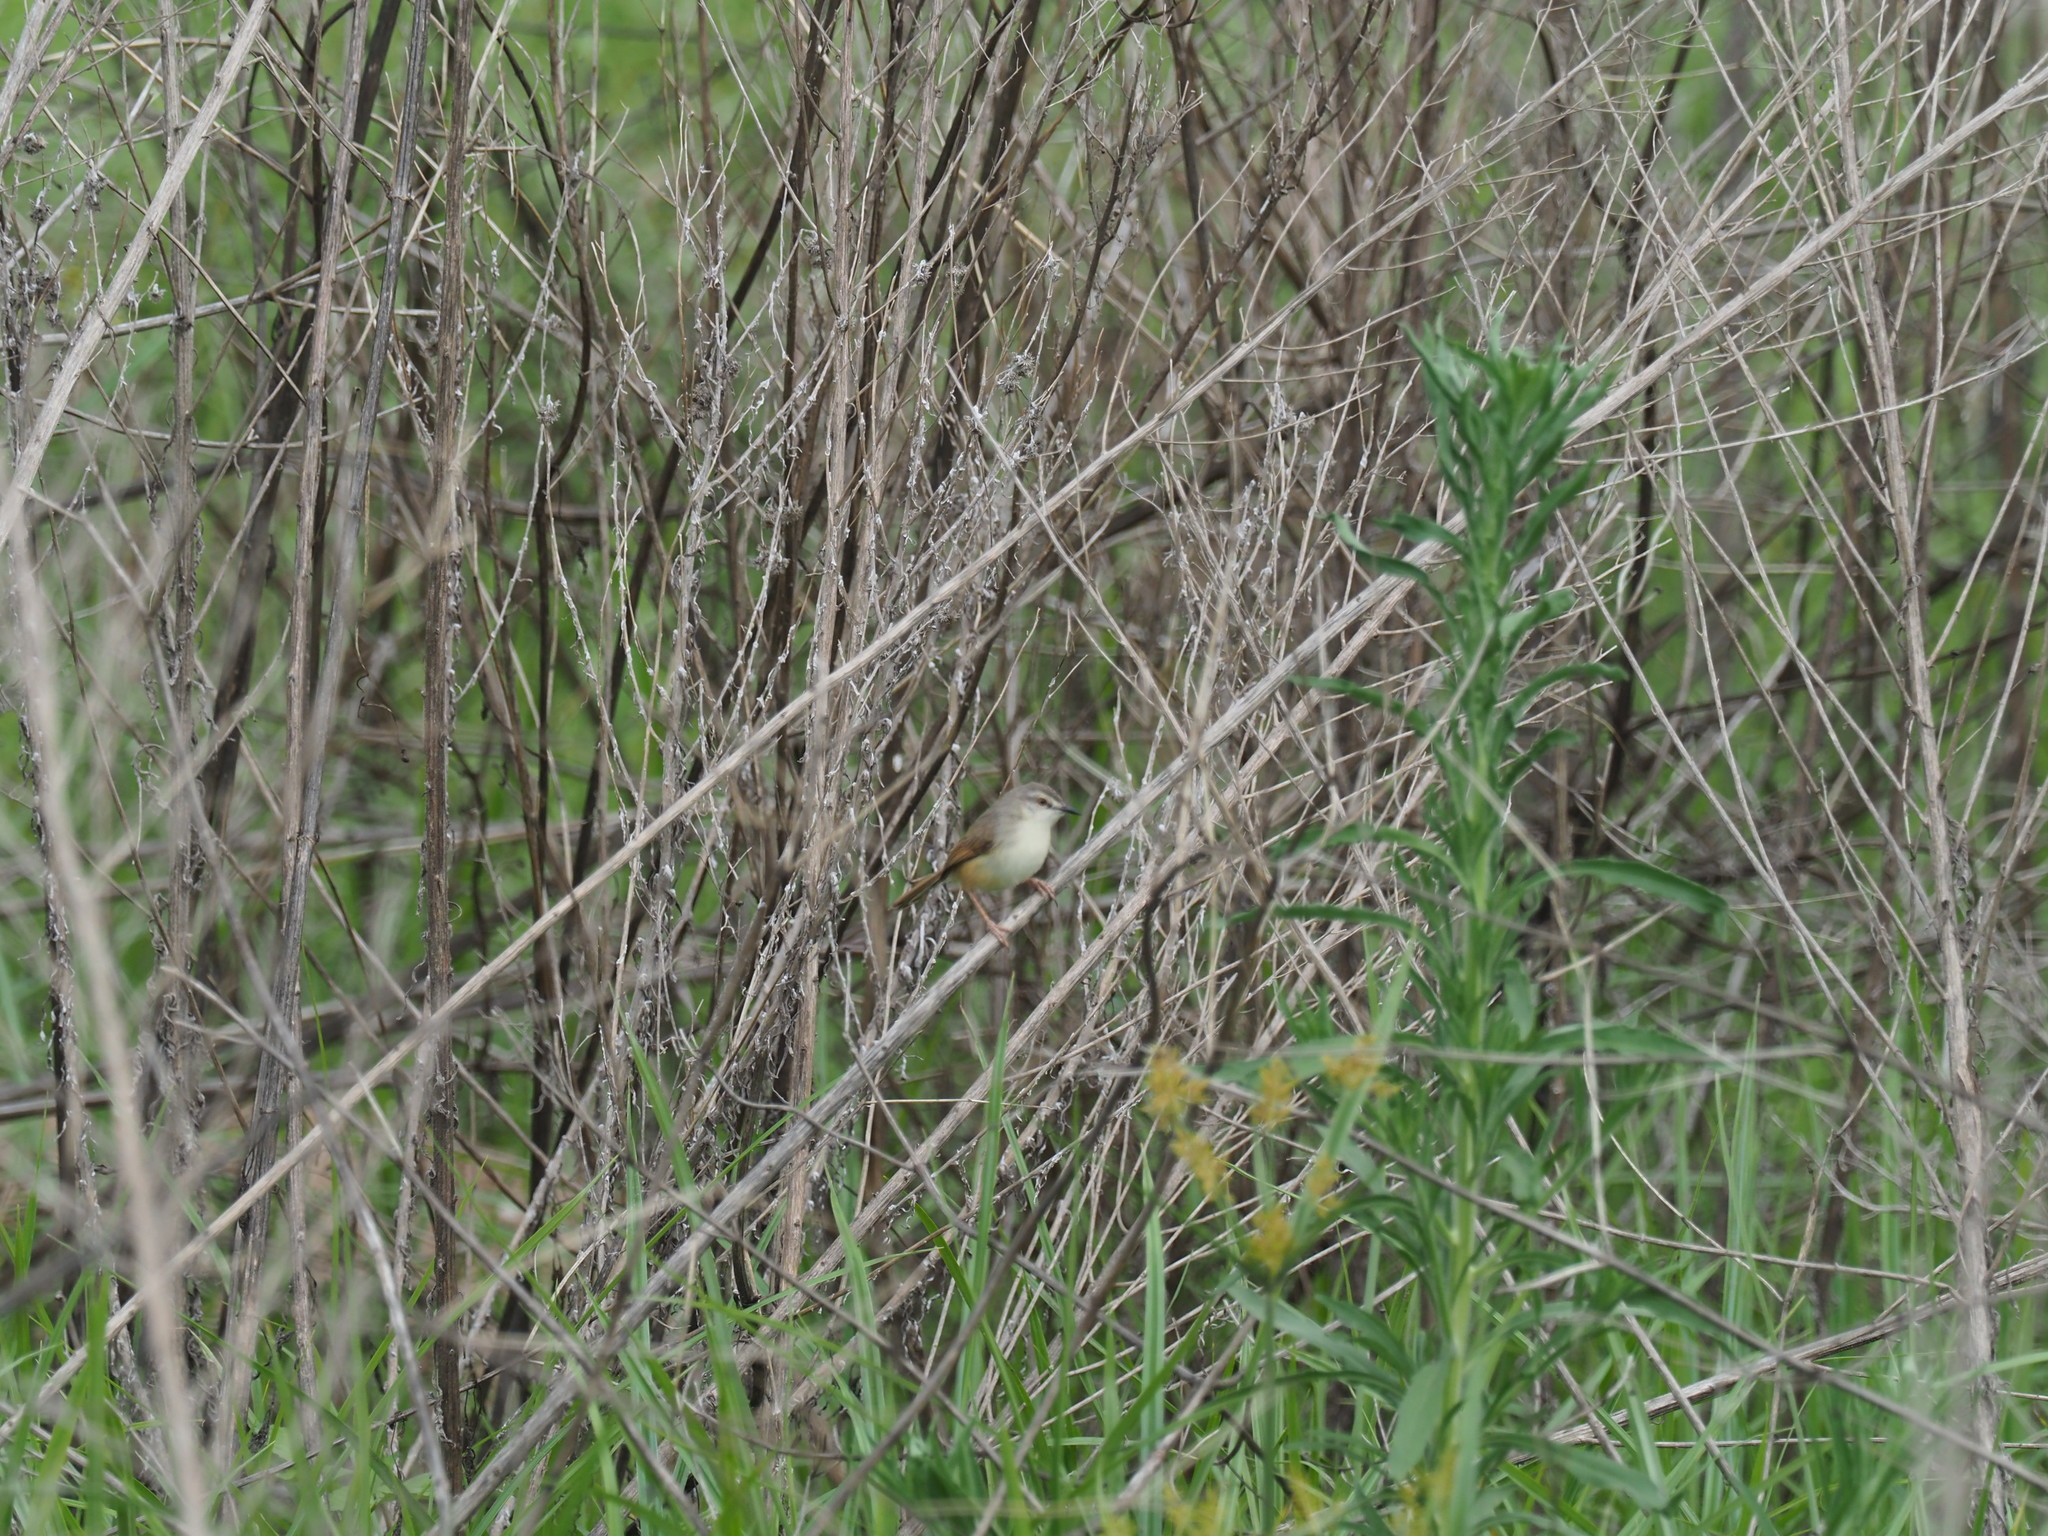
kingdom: Animalia
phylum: Chordata
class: Aves
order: Passeriformes
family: Cisticolidae
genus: Prinia
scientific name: Prinia subflava
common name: Tawny-flanked prinia
